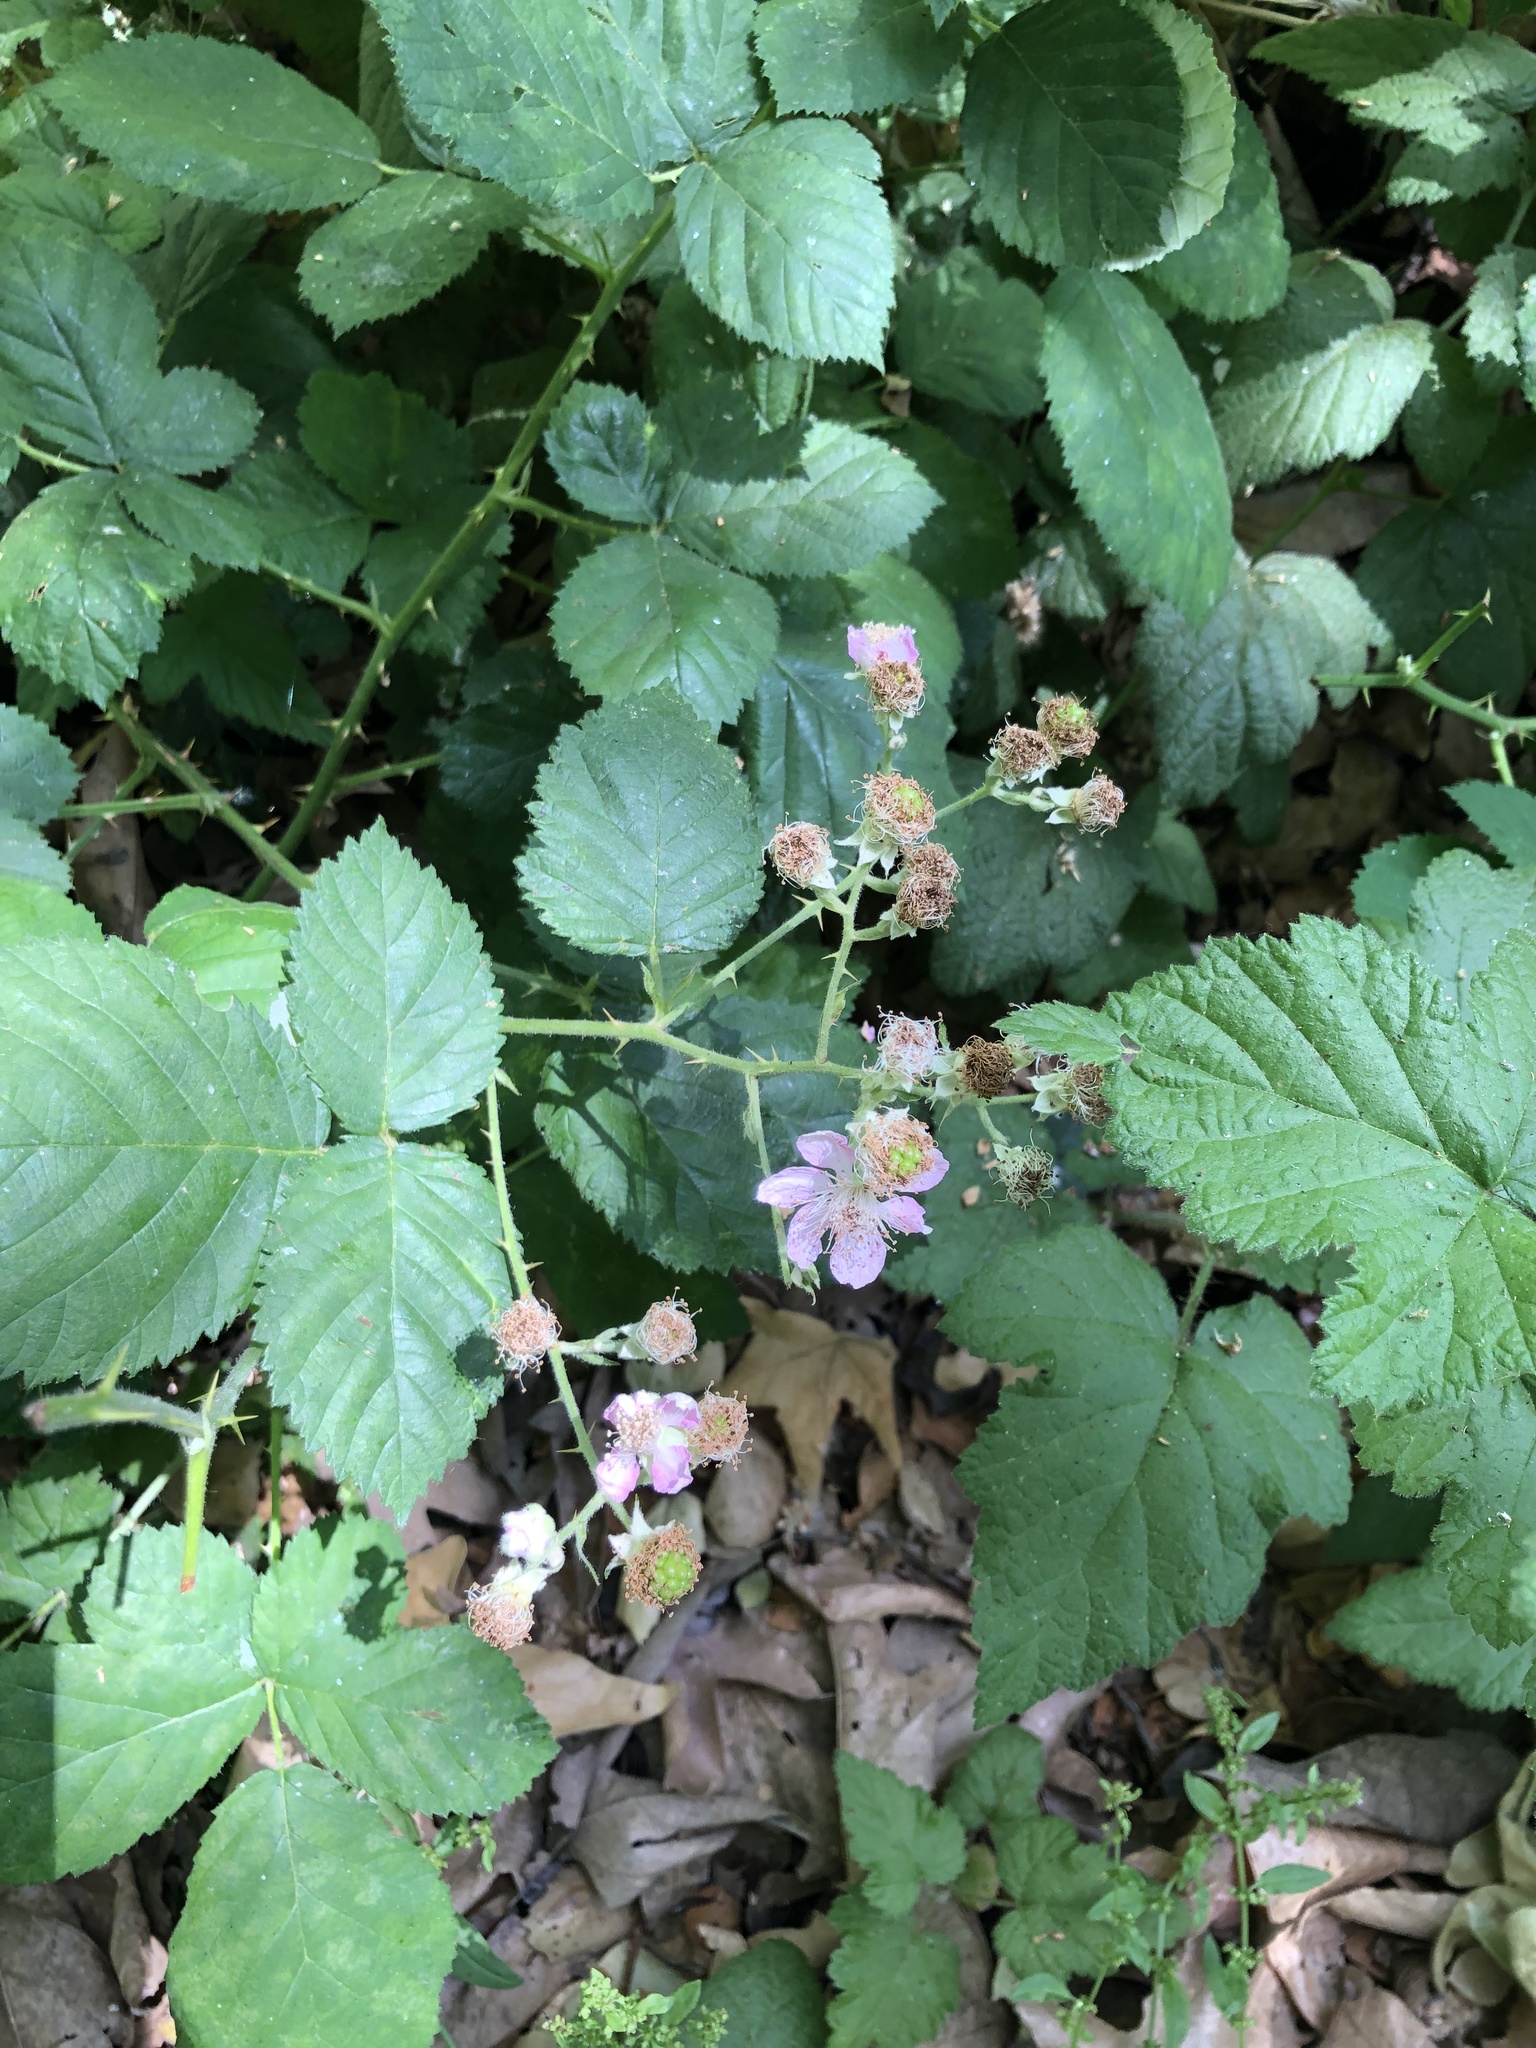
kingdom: Plantae
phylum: Tracheophyta
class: Magnoliopsida
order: Rosales
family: Rosaceae
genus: Rubus
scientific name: Rubus ursinus
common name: Pacific blackberry
